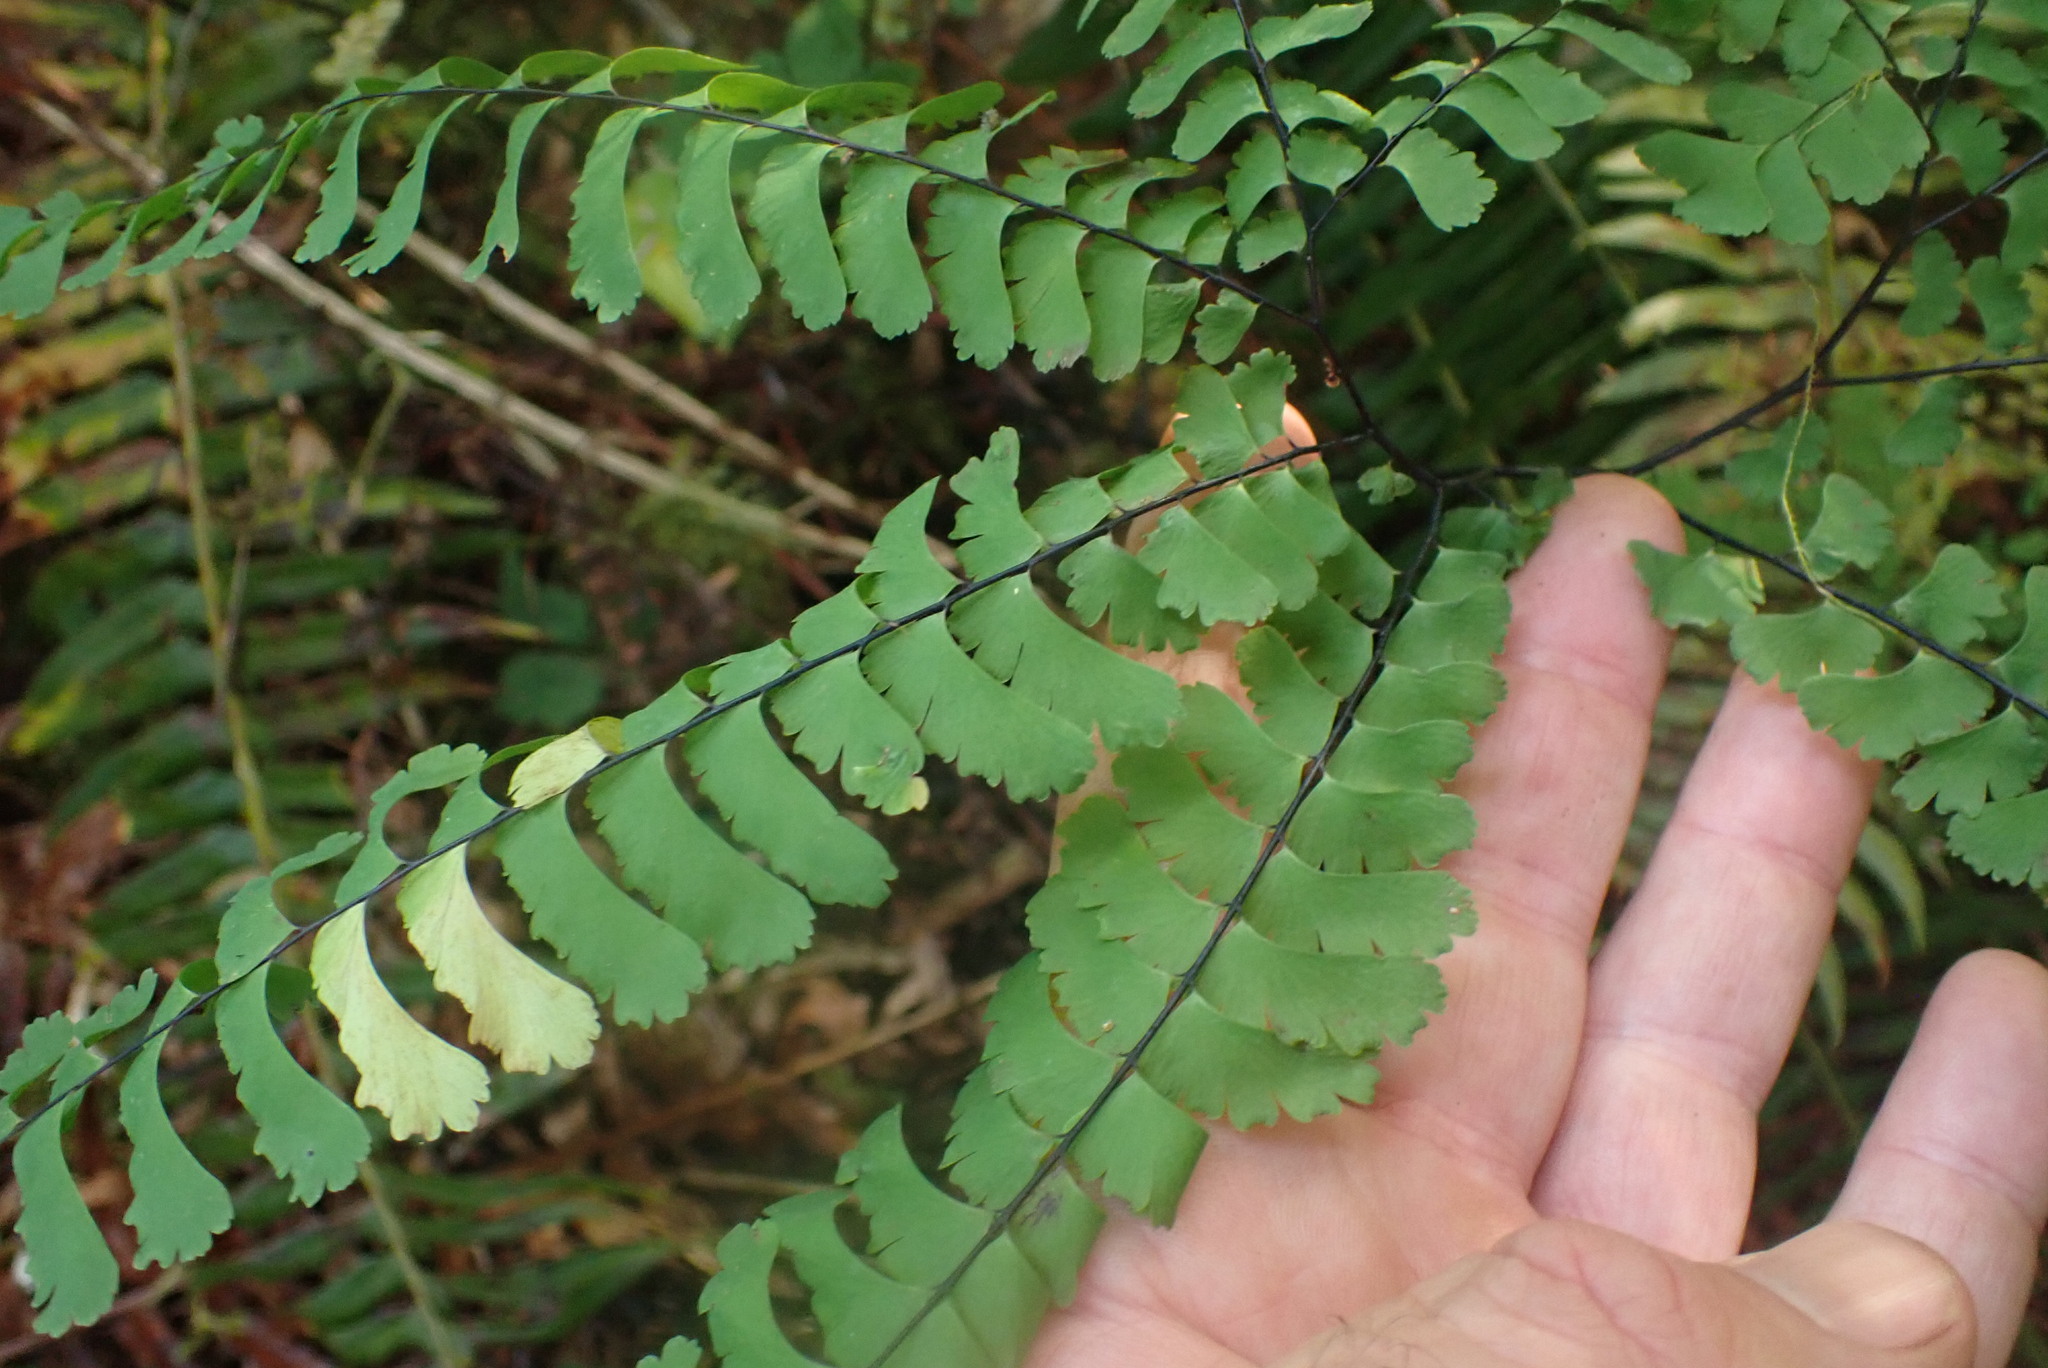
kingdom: Plantae
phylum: Tracheophyta
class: Polypodiopsida
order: Polypodiales
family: Pteridaceae
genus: Adiantum
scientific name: Adiantum aleuticum
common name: Aleutian maidenhair fern
